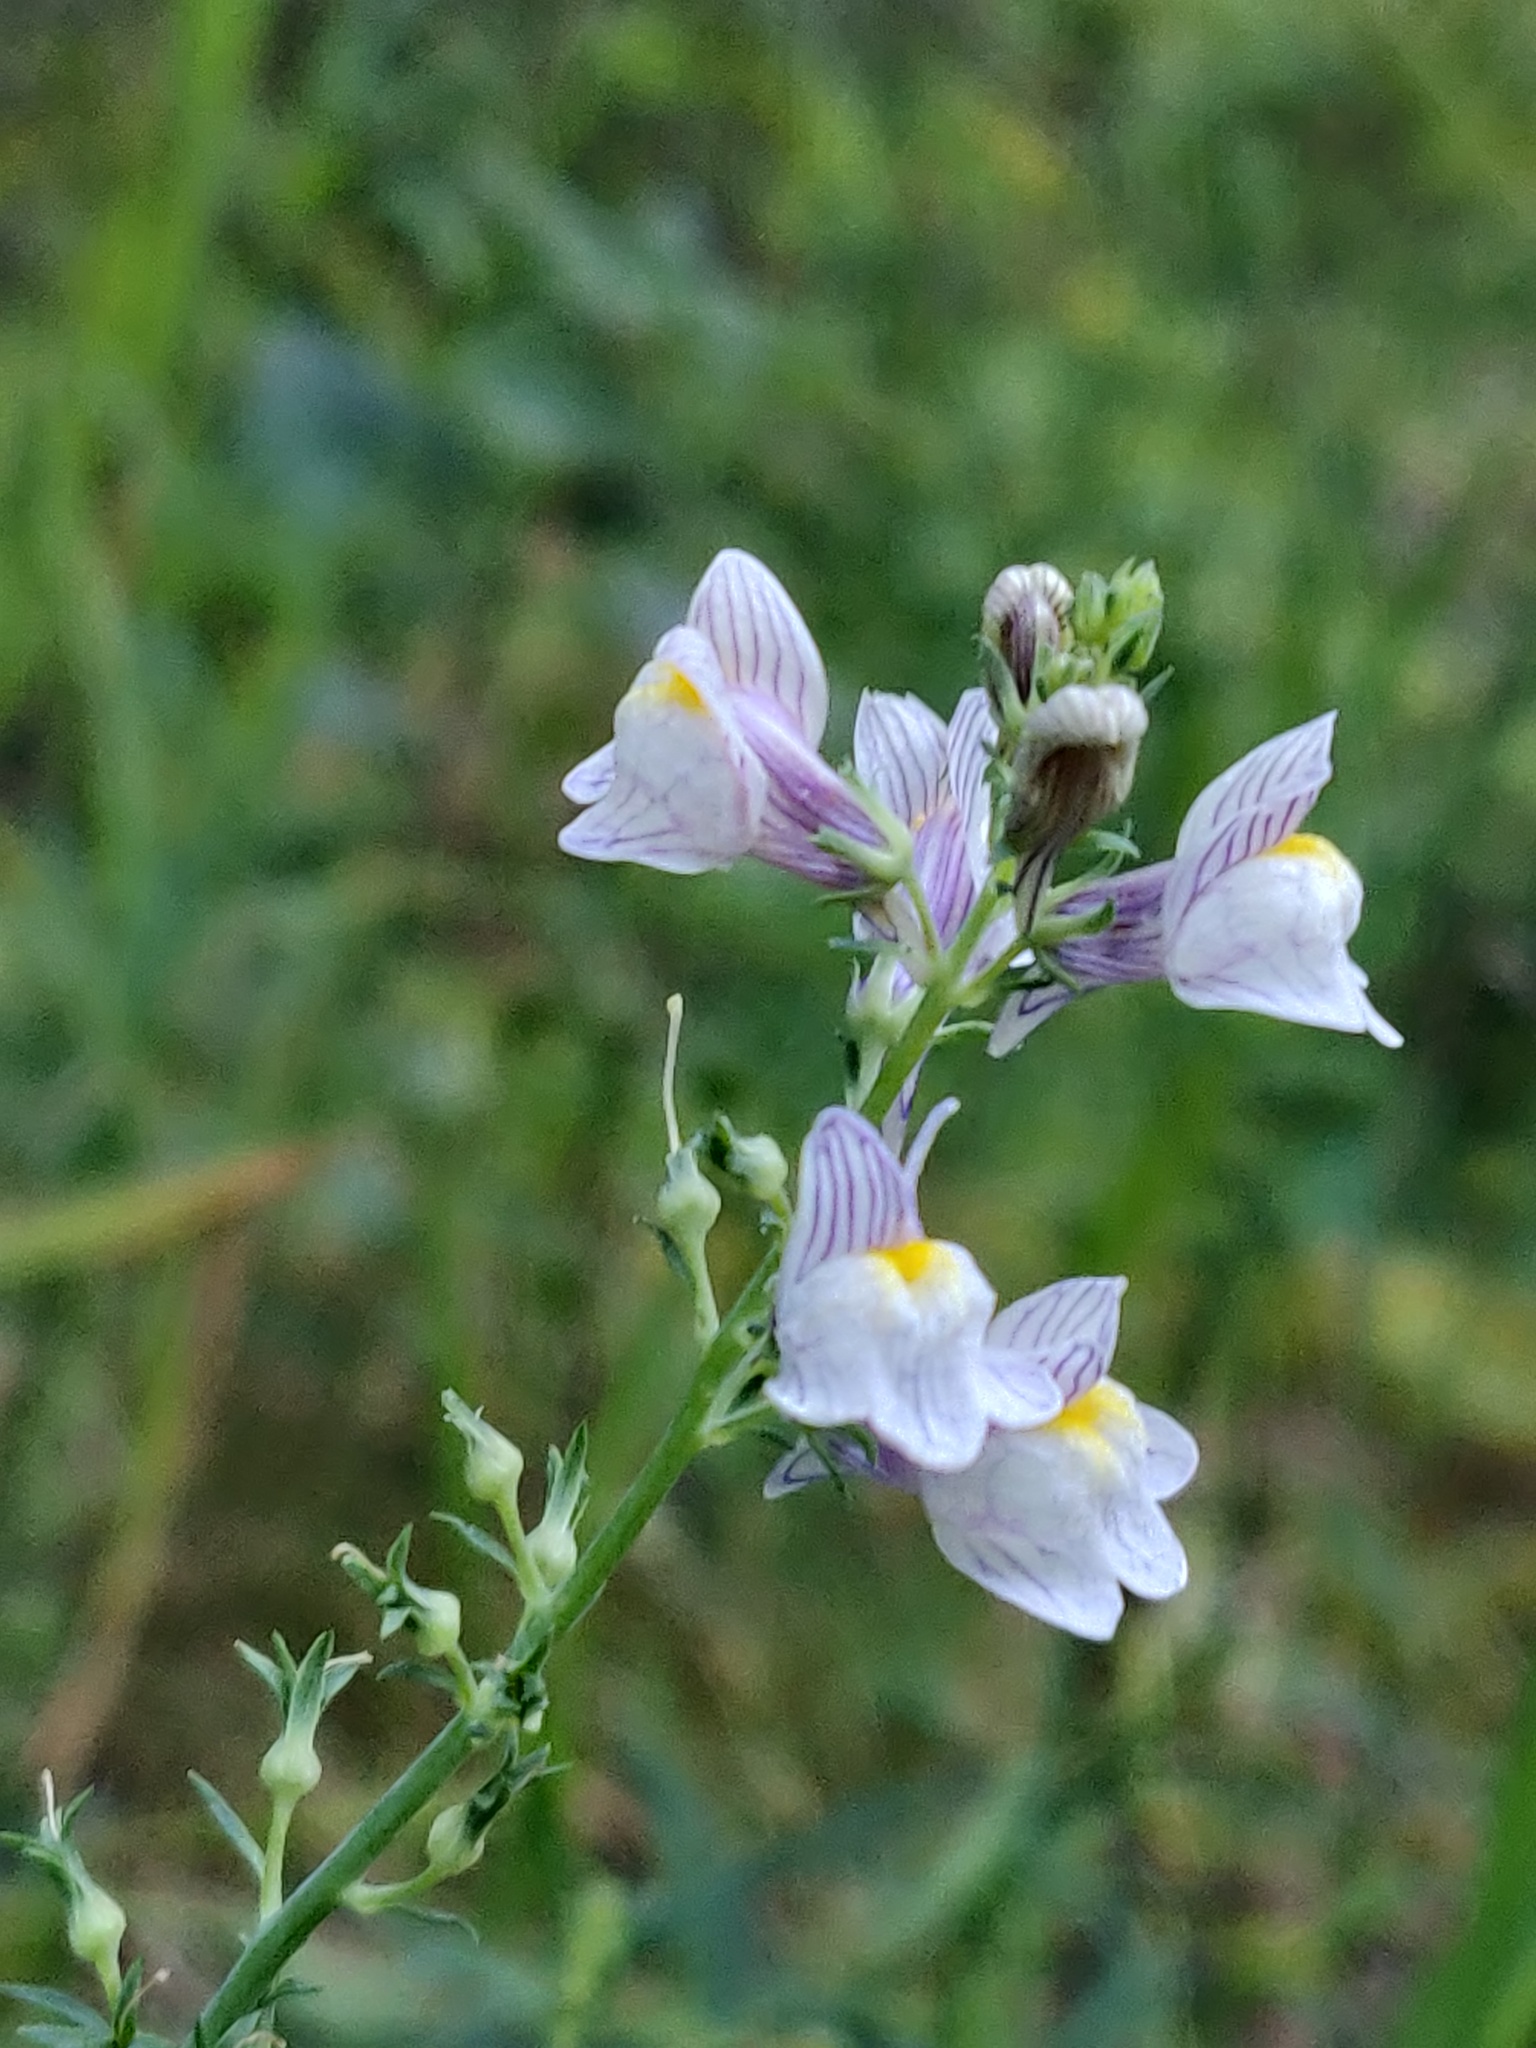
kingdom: Plantae
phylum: Tracheophyta
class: Magnoliopsida
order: Lamiales
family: Plantaginaceae
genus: Linaria
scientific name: Linaria repens
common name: Pale toadflax
